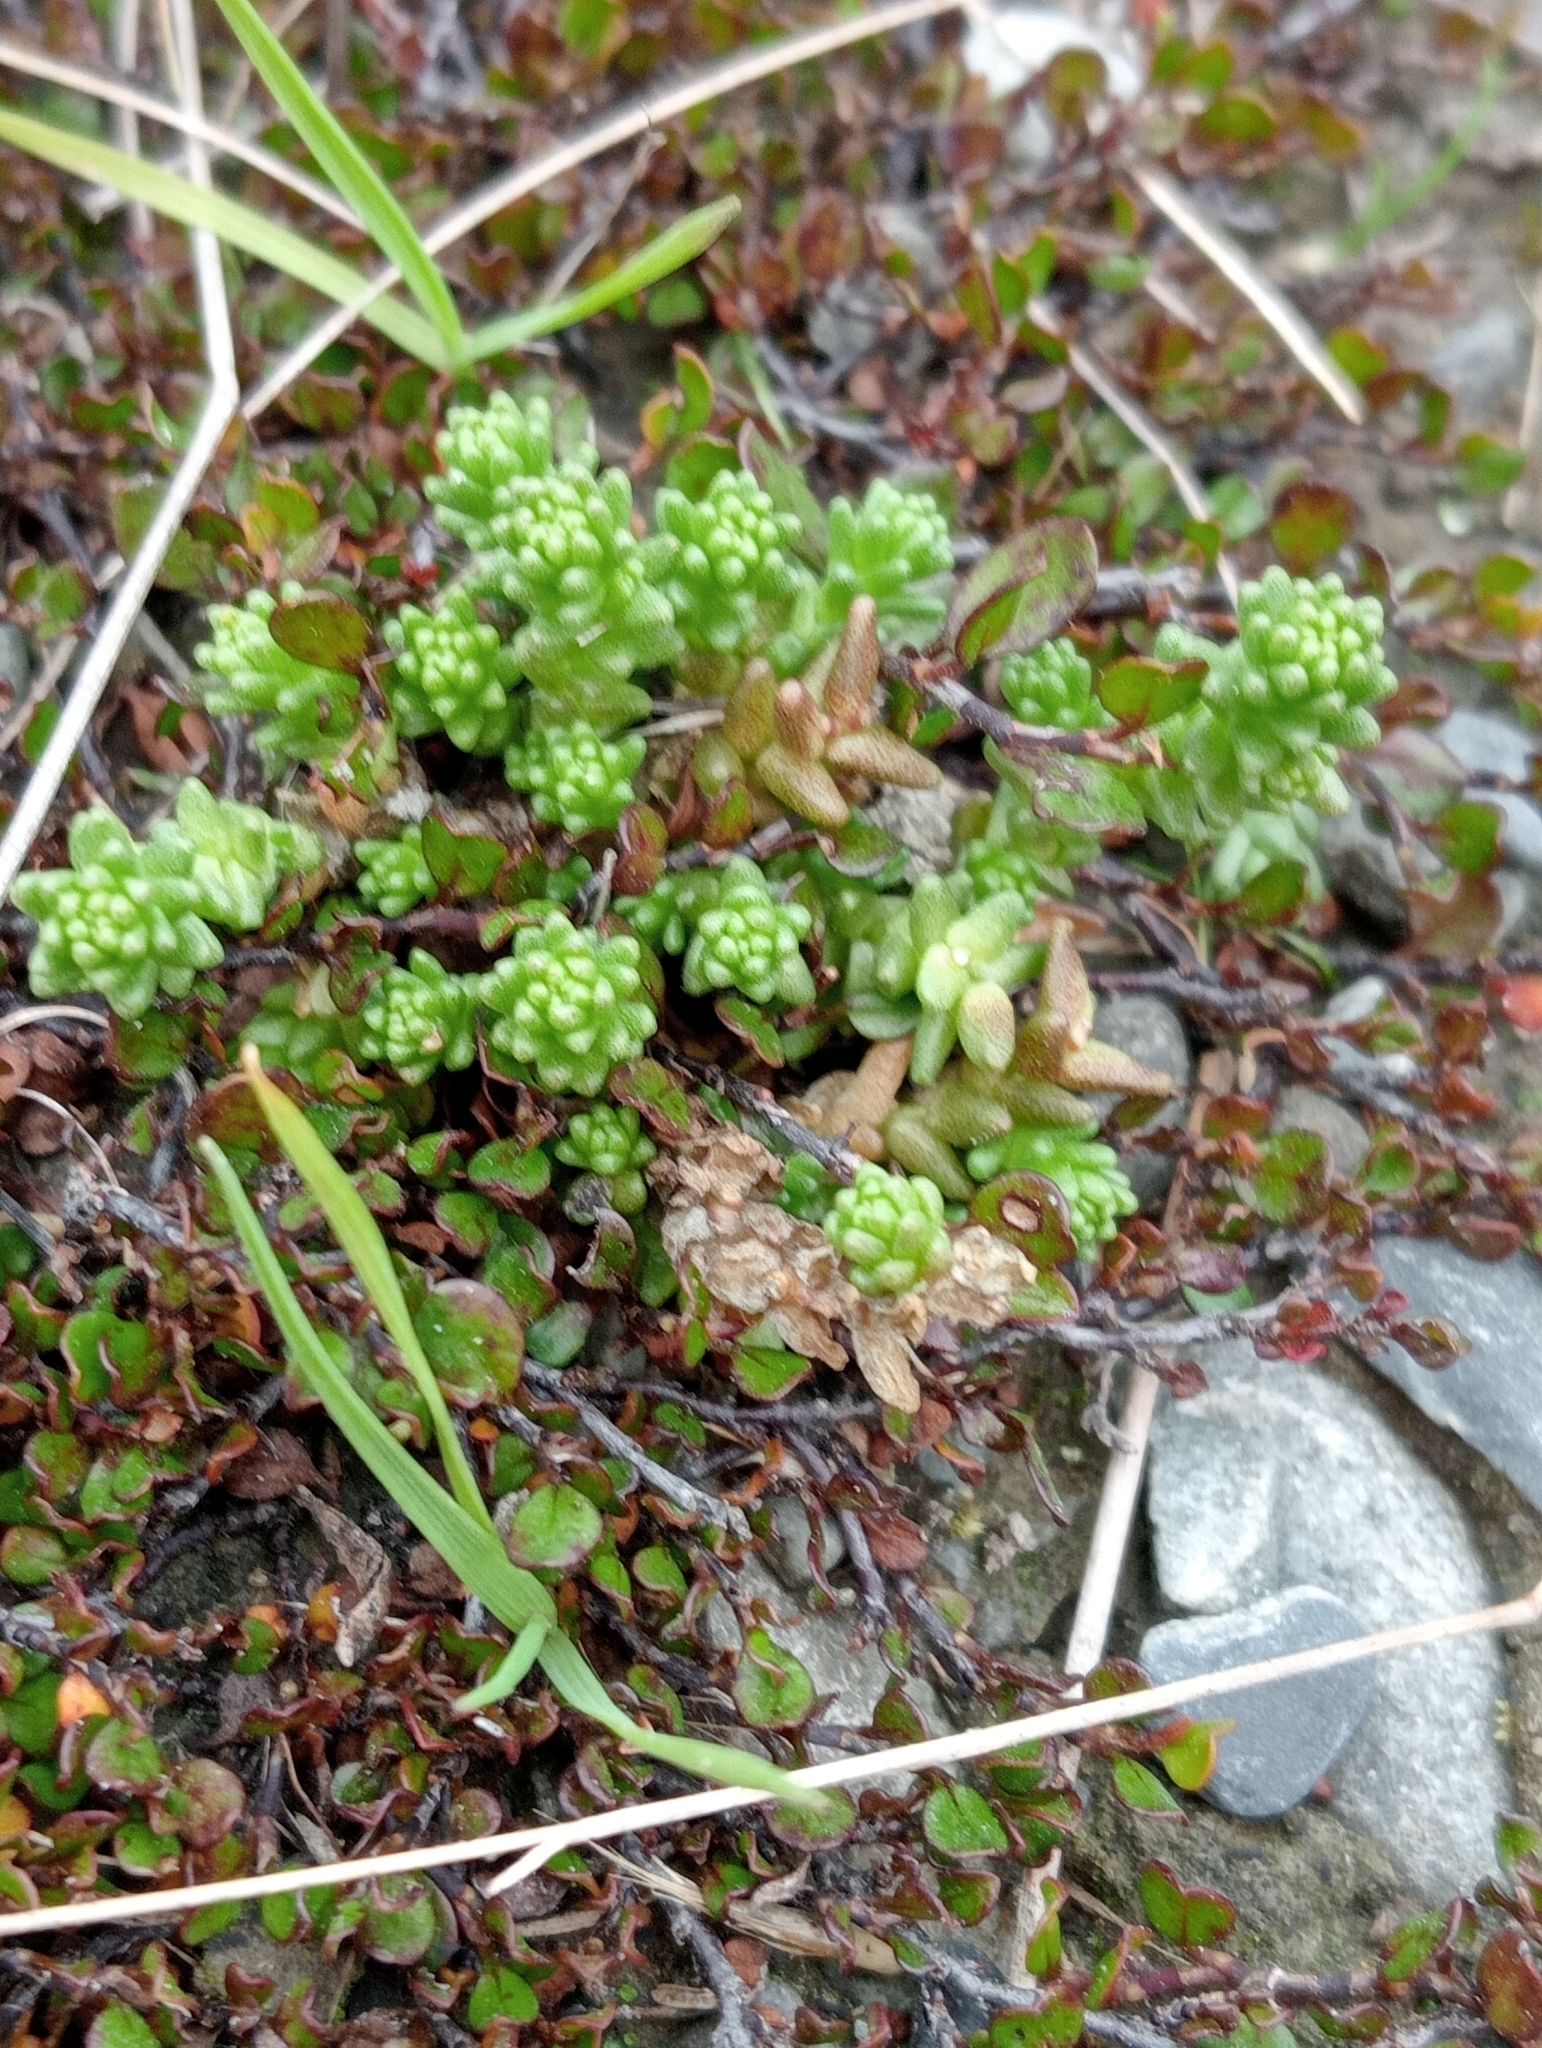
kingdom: Plantae
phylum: Tracheophyta
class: Magnoliopsida
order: Saxifragales
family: Crassulaceae
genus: Sedum
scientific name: Sedum acre
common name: Biting stonecrop
